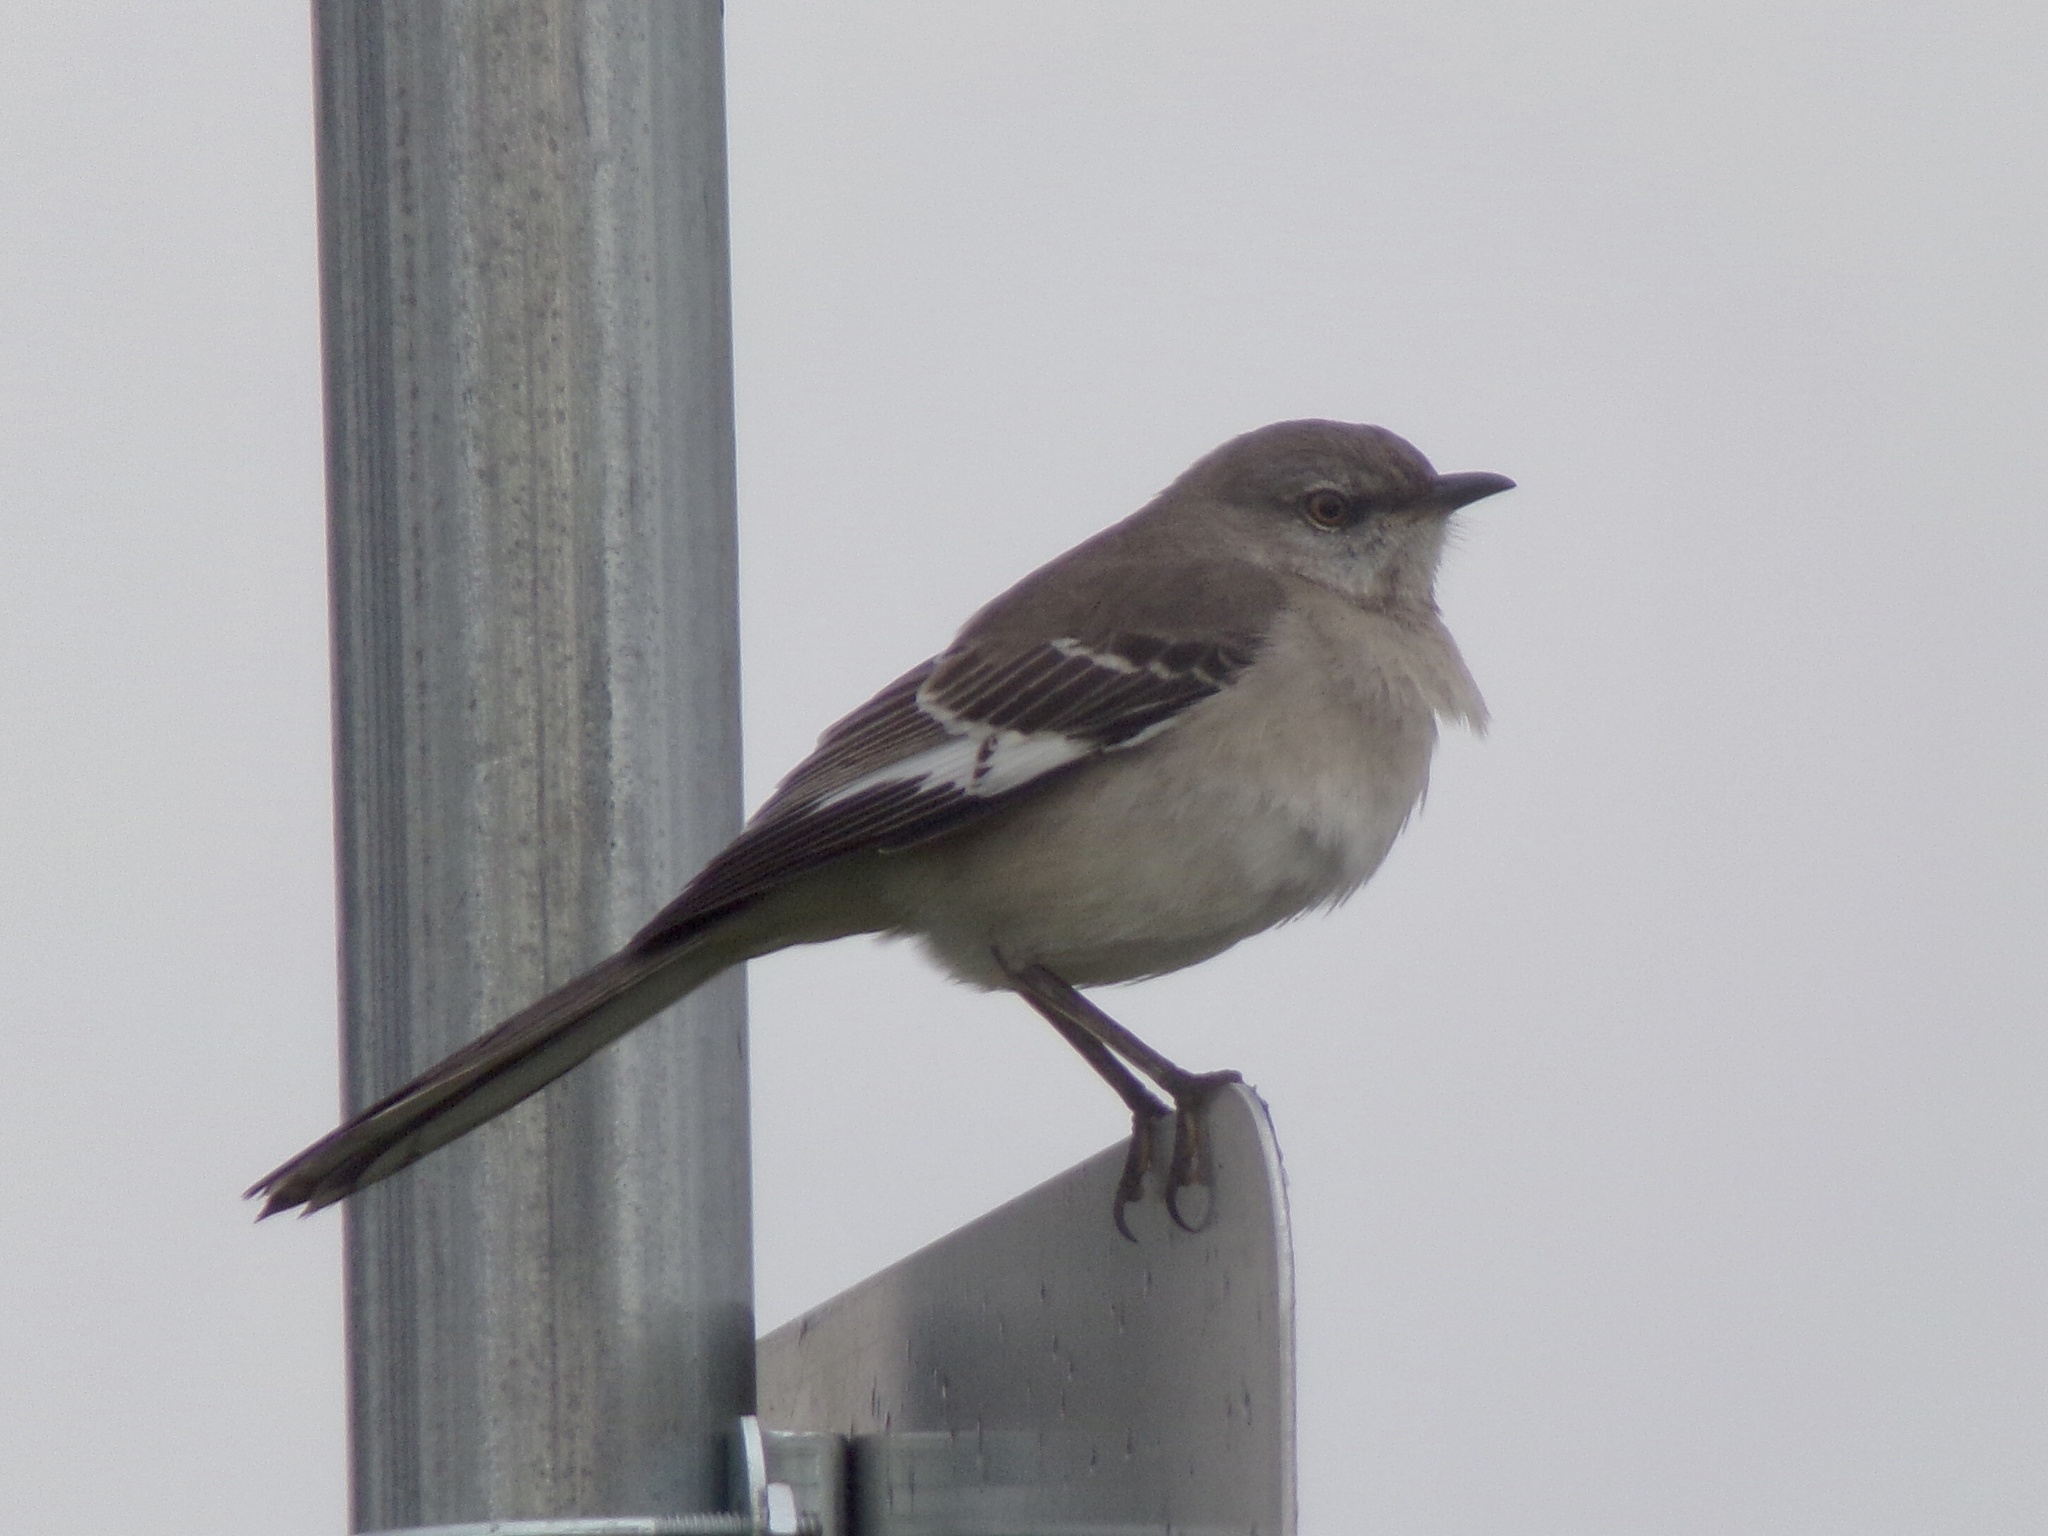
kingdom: Animalia
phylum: Chordata
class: Aves
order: Passeriformes
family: Mimidae
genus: Mimus
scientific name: Mimus polyglottos
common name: Northern mockingbird
